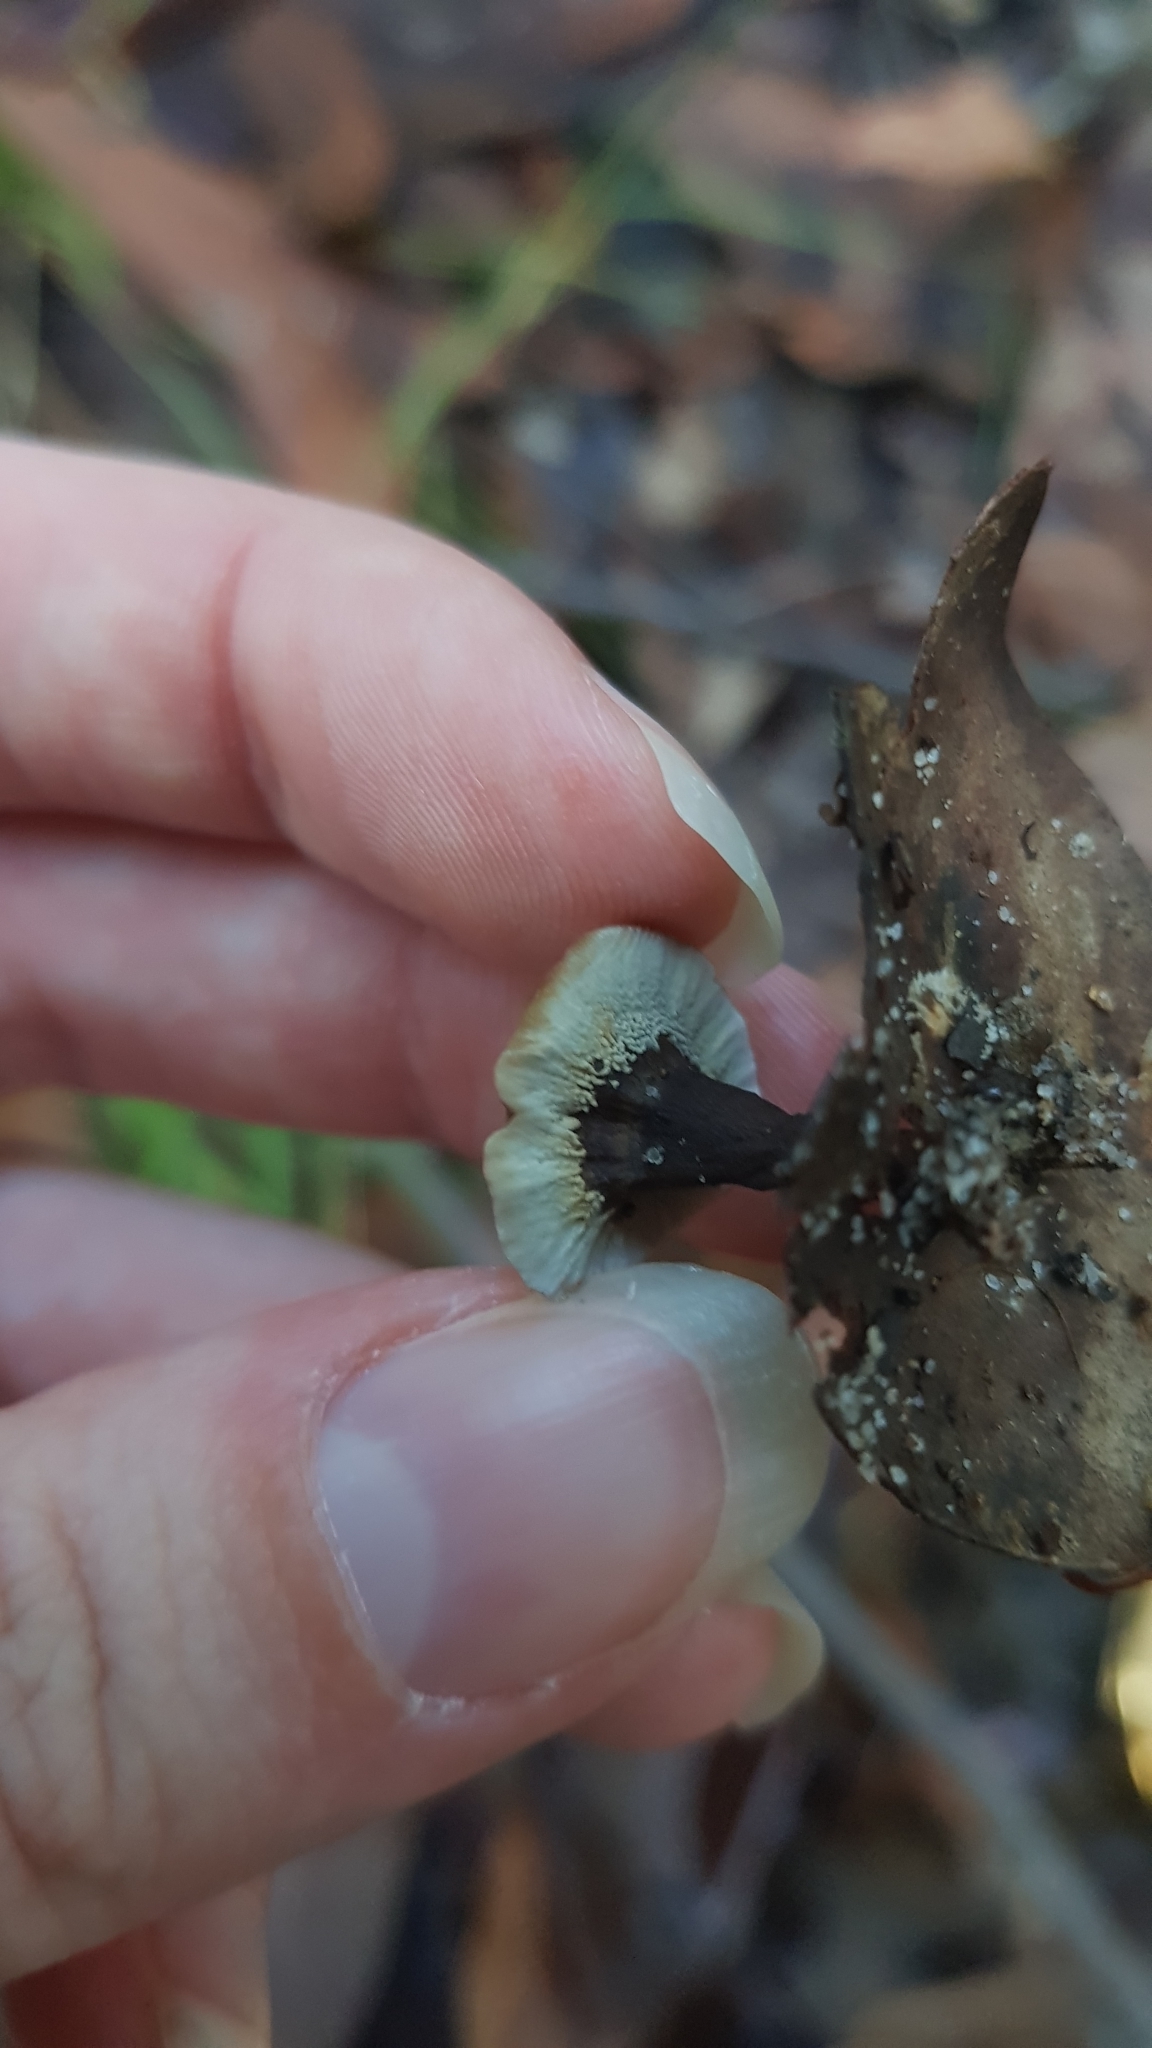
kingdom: Fungi
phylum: Basidiomycota
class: Agaricomycetes
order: Thelephorales
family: Thelephoraceae
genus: Phellodon
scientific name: Phellodon niger
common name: Black tooth
